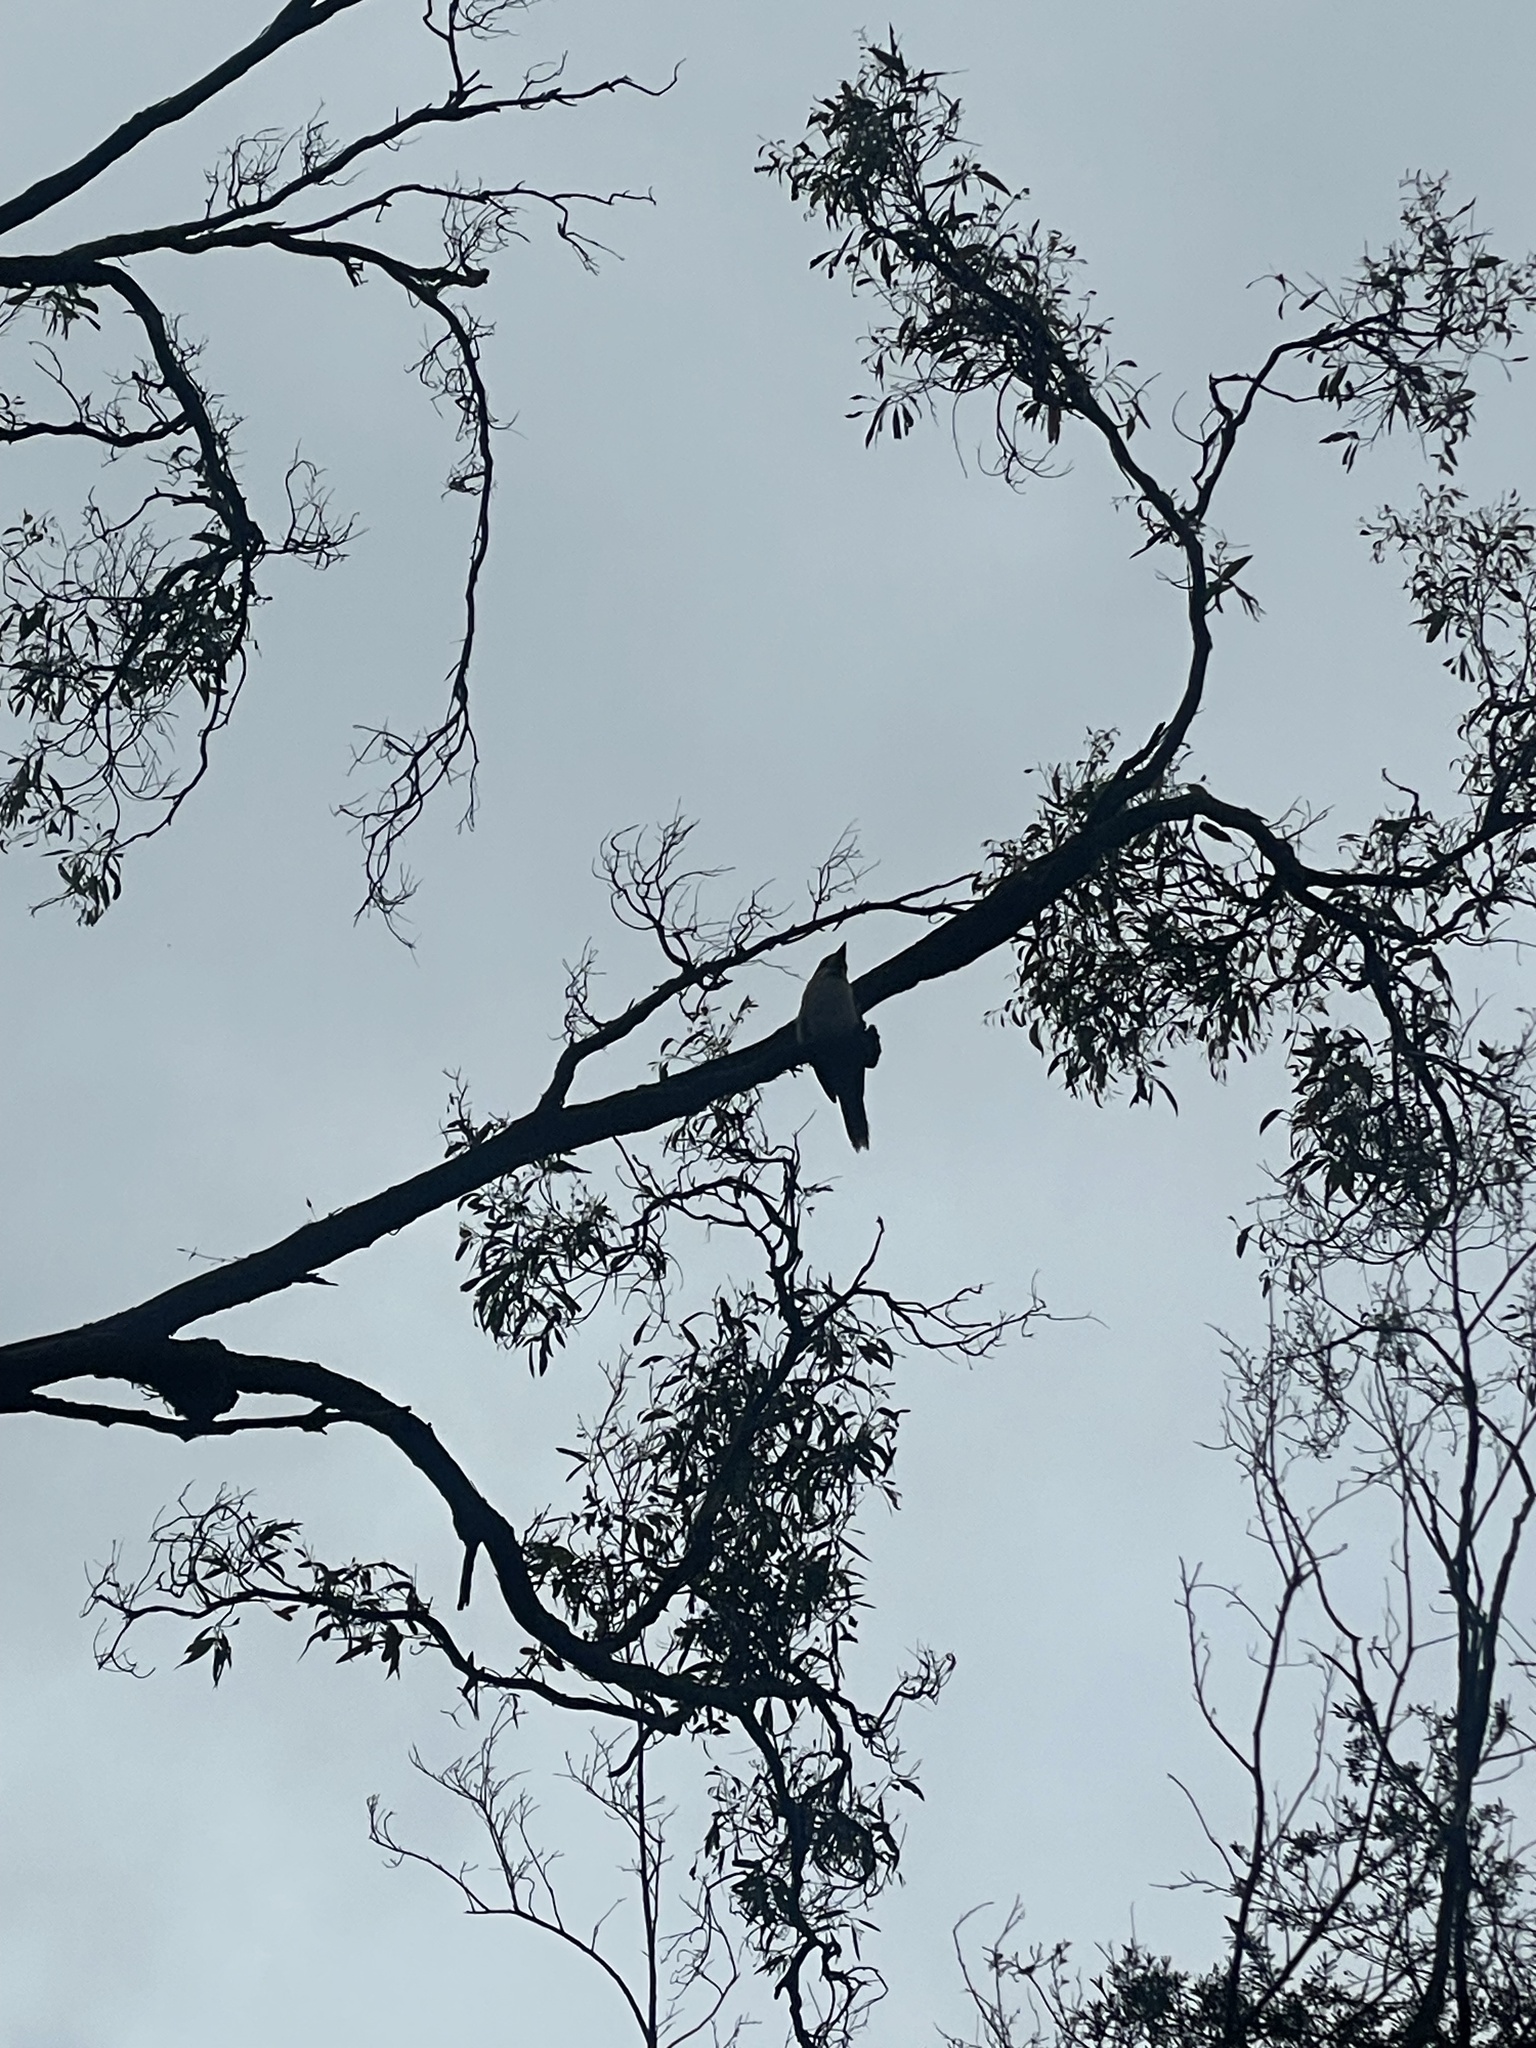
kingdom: Animalia
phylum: Chordata
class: Aves
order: Coraciiformes
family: Alcedinidae
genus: Dacelo
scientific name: Dacelo novaeguineae
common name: Laughing kookaburra
